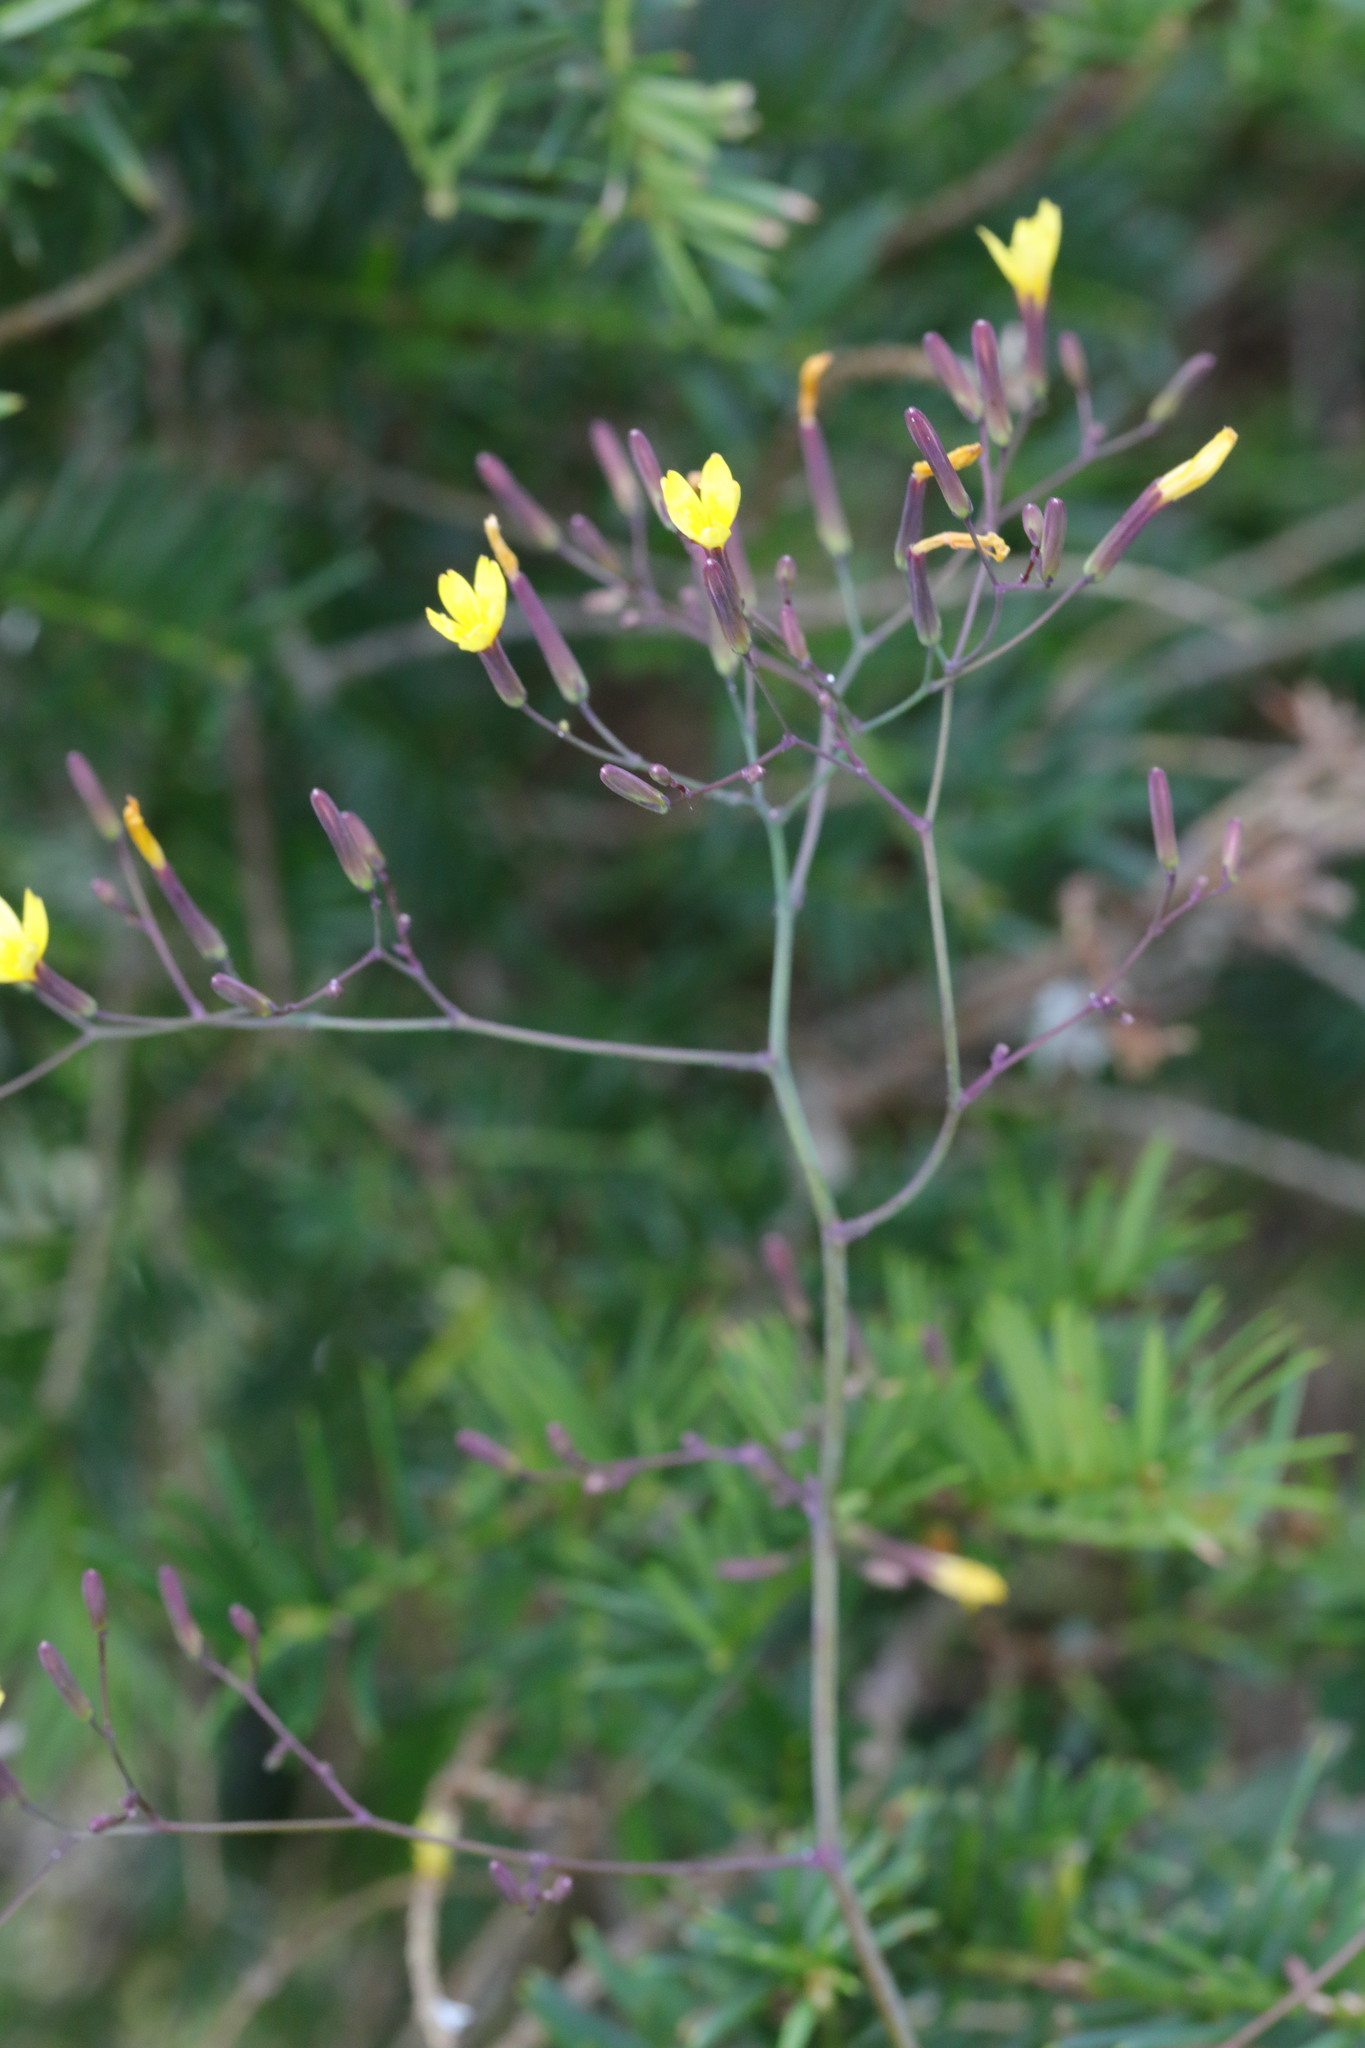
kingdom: Plantae
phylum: Tracheophyta
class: Magnoliopsida
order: Asterales
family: Asteraceae
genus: Mycelis
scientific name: Mycelis muralis
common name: Wall lettuce
